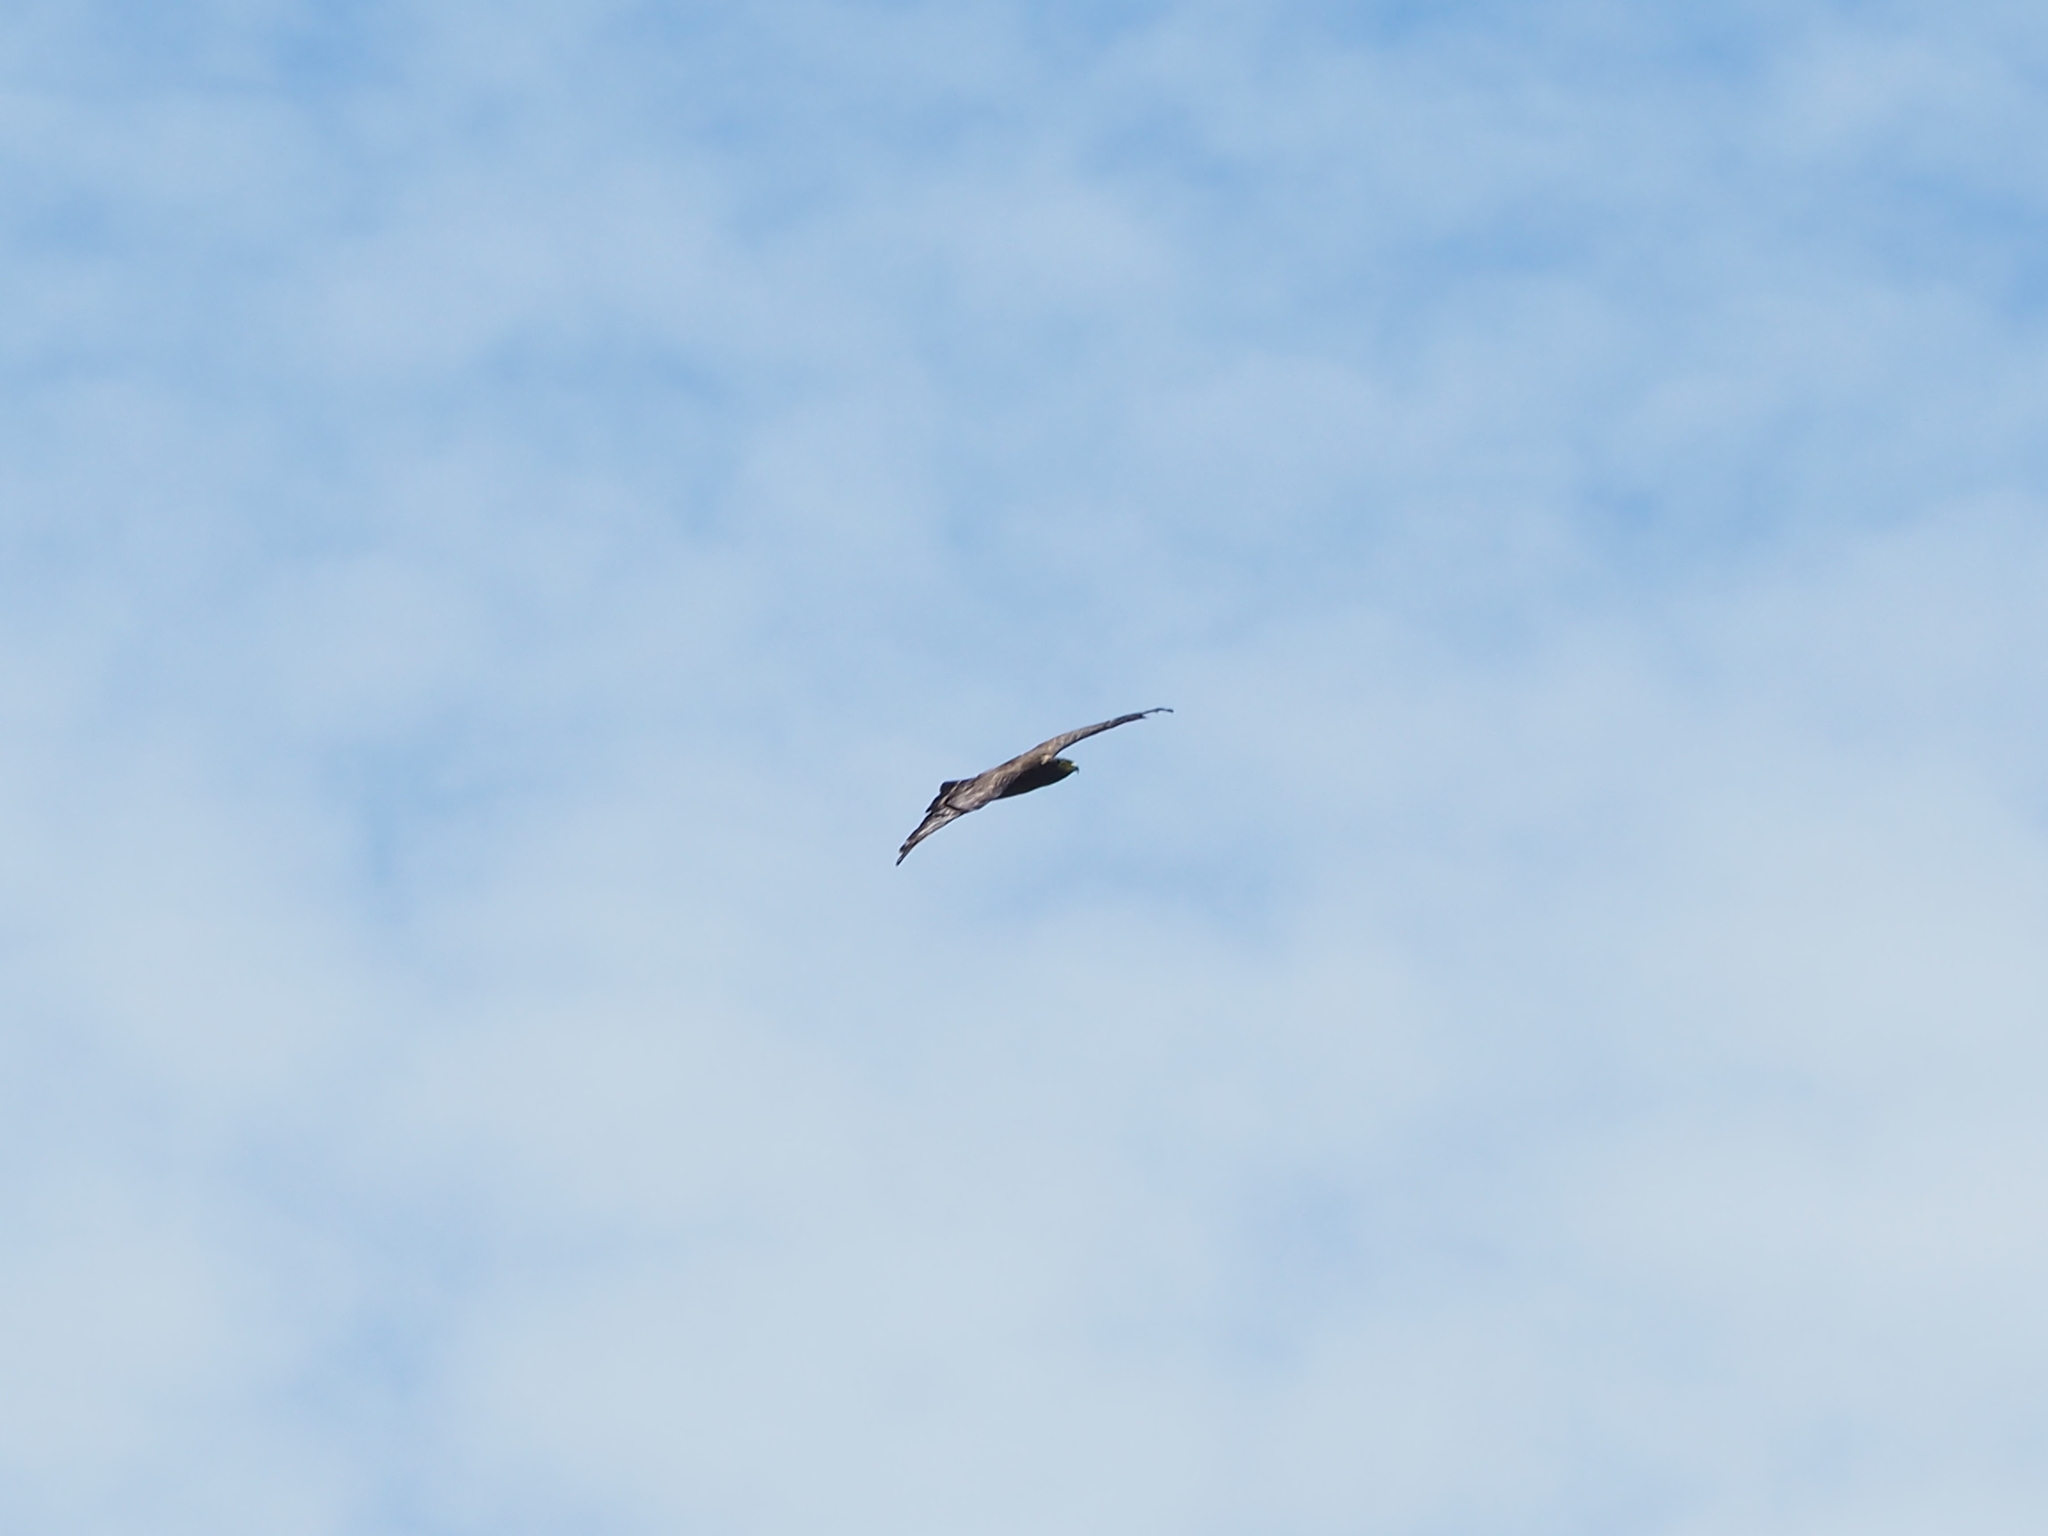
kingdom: Animalia
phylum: Chordata
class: Aves
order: Accipitriformes
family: Accipitridae
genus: Spilornis
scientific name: Spilornis cheela
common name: Crested serpent eagle
